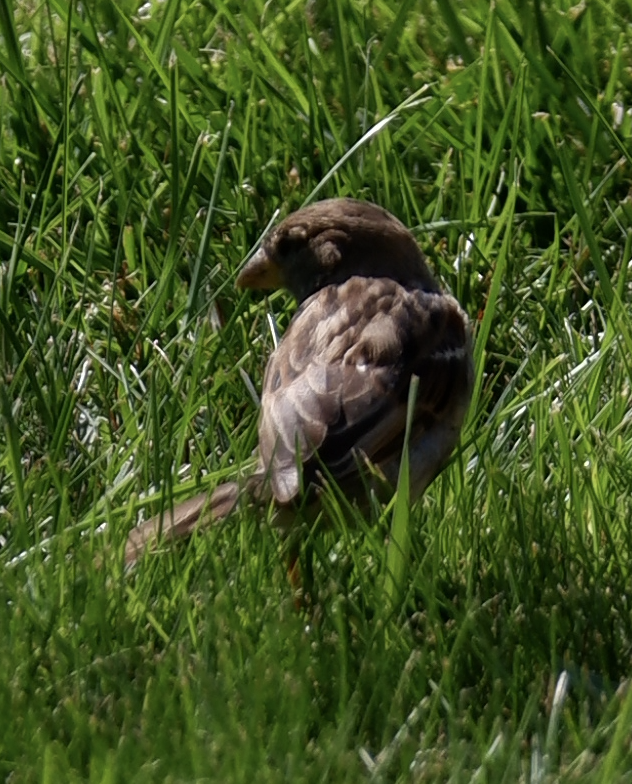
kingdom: Animalia
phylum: Chordata
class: Aves
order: Passeriformes
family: Passeridae
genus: Passer
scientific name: Passer domesticus
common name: House sparrow
